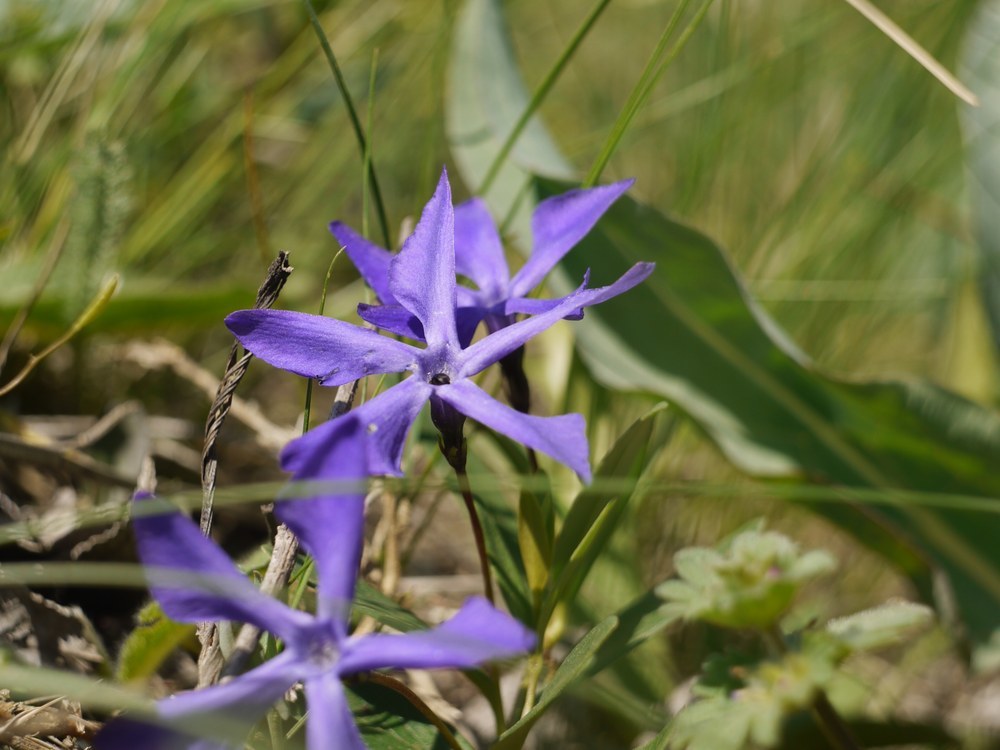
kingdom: Plantae
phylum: Tracheophyta
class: Magnoliopsida
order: Gentianales
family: Apocynaceae
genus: Vinca
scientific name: Vinca herbacea
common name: Herbaceous periwinkle
